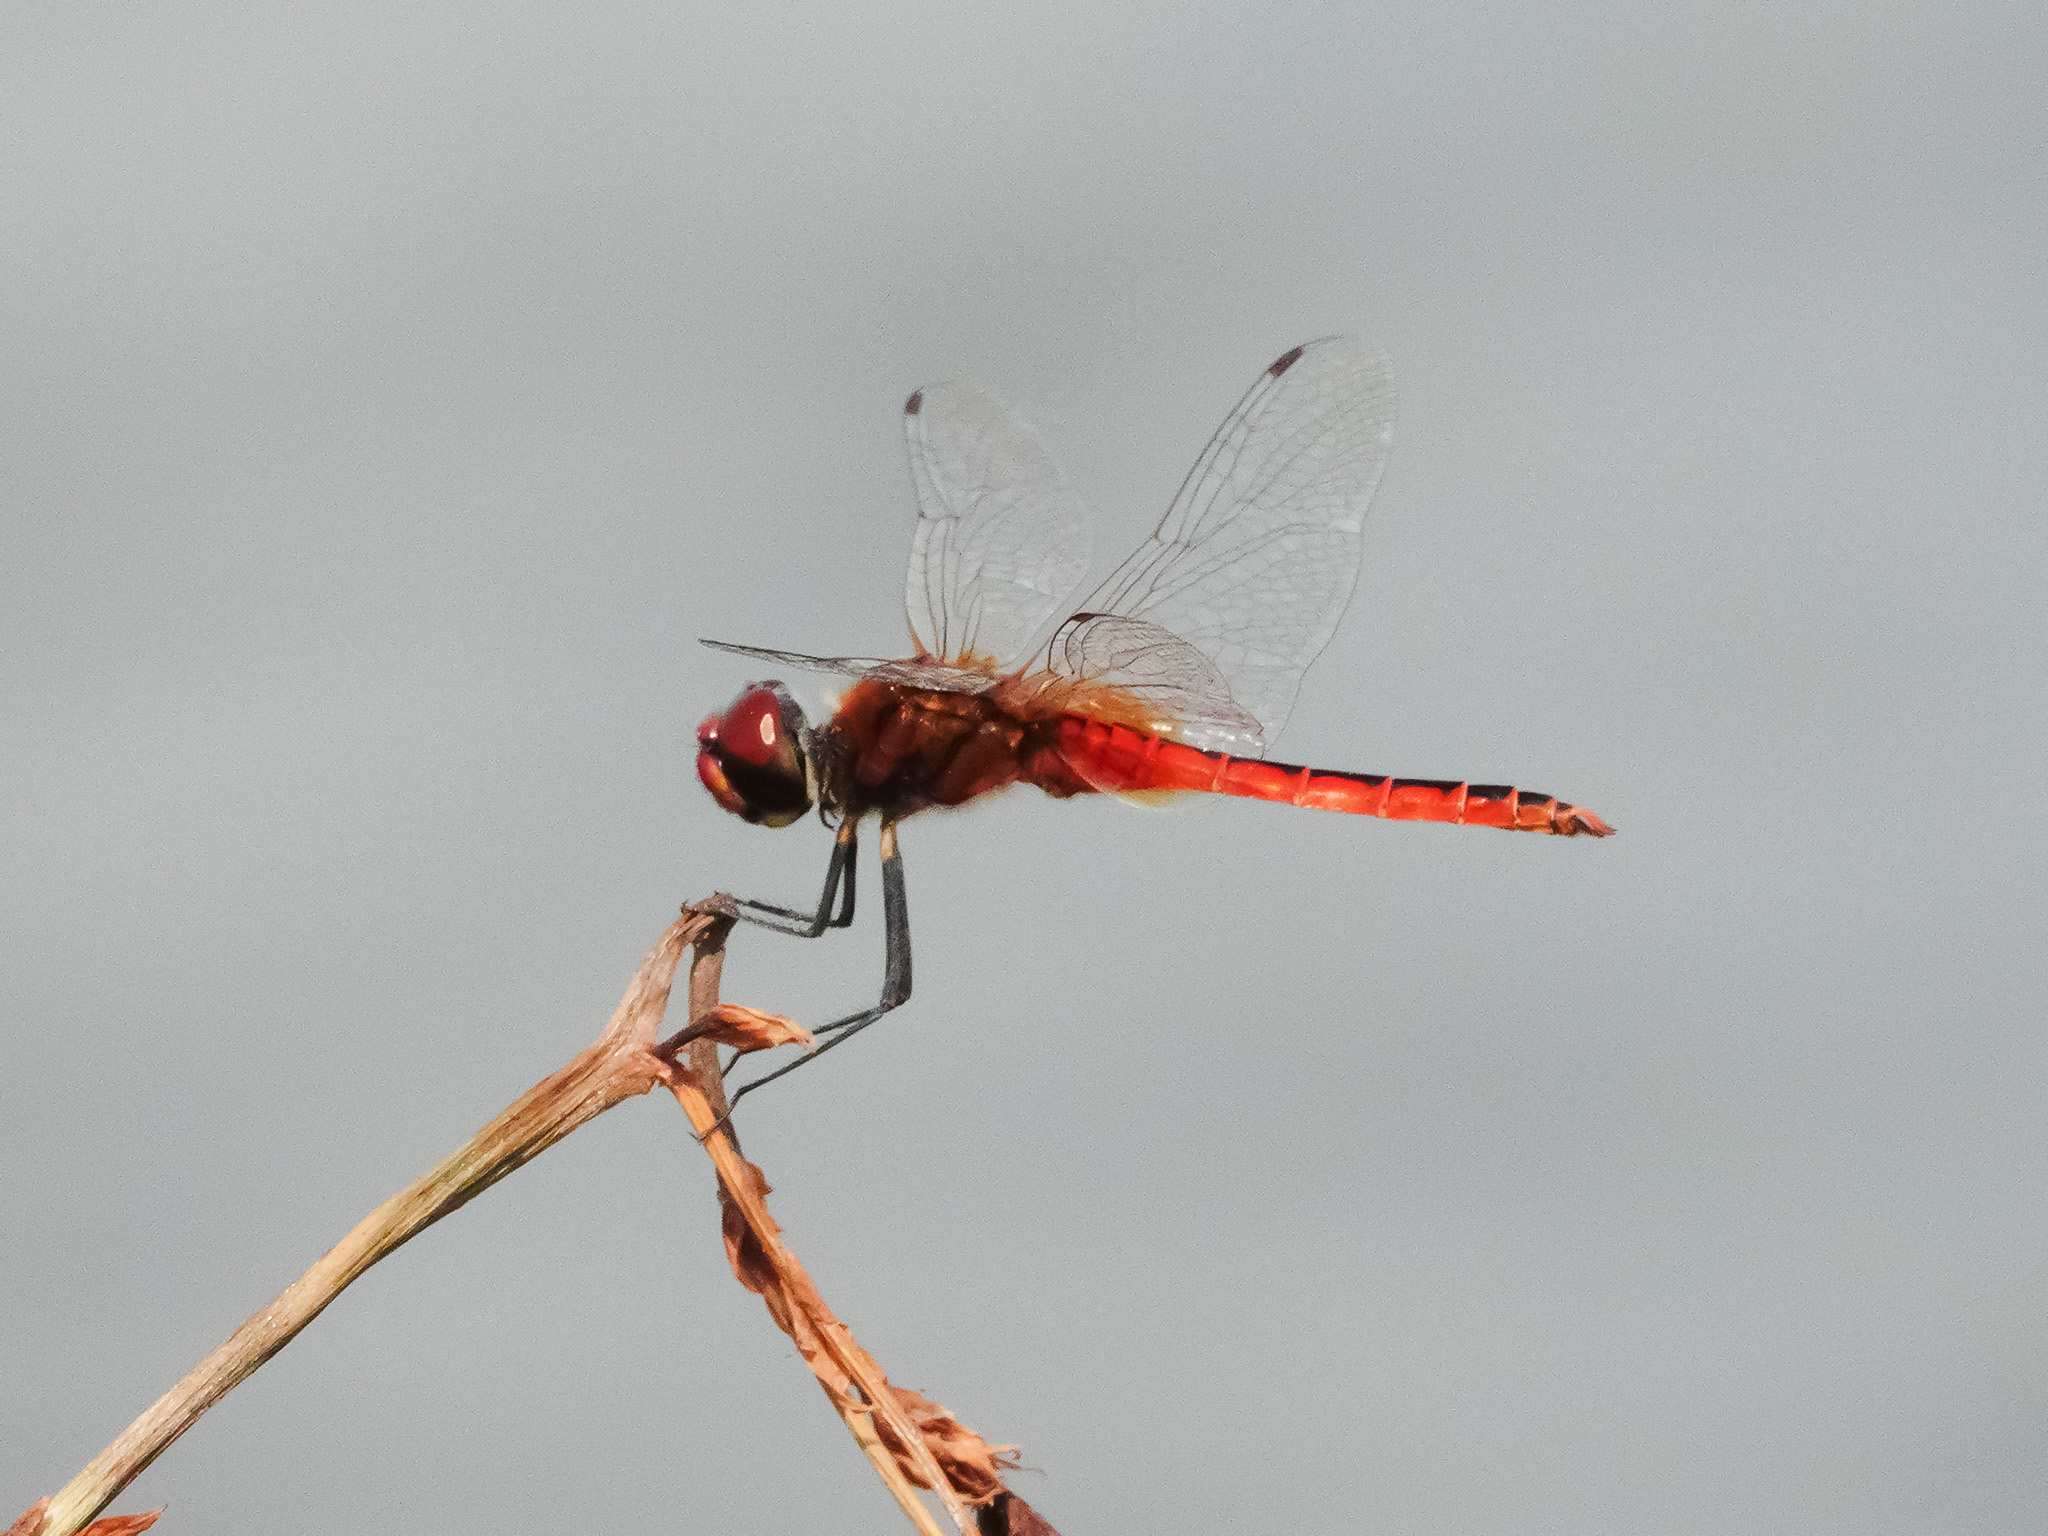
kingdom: Animalia
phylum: Arthropoda
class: Insecta
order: Odonata
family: Libellulidae
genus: Macrodiplax
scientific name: Macrodiplax cora
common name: Coastal glider
